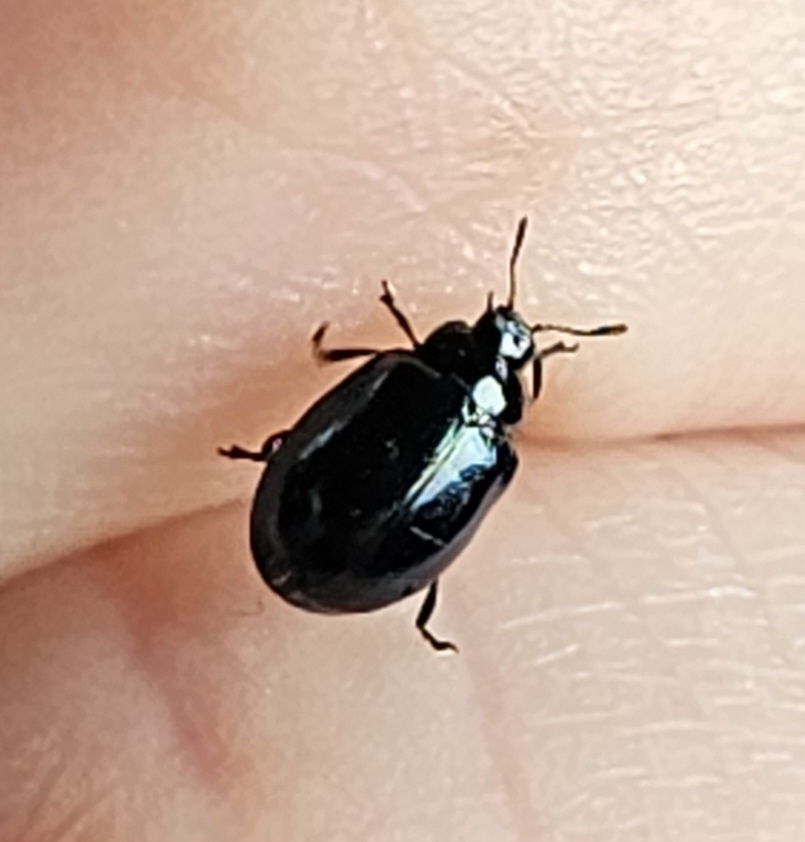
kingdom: Animalia
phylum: Arthropoda
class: Insecta
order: Coleoptera
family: Chrysomelidae
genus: Plagiodera
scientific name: Plagiodera versicolora
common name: Imported willow leaf beetle
